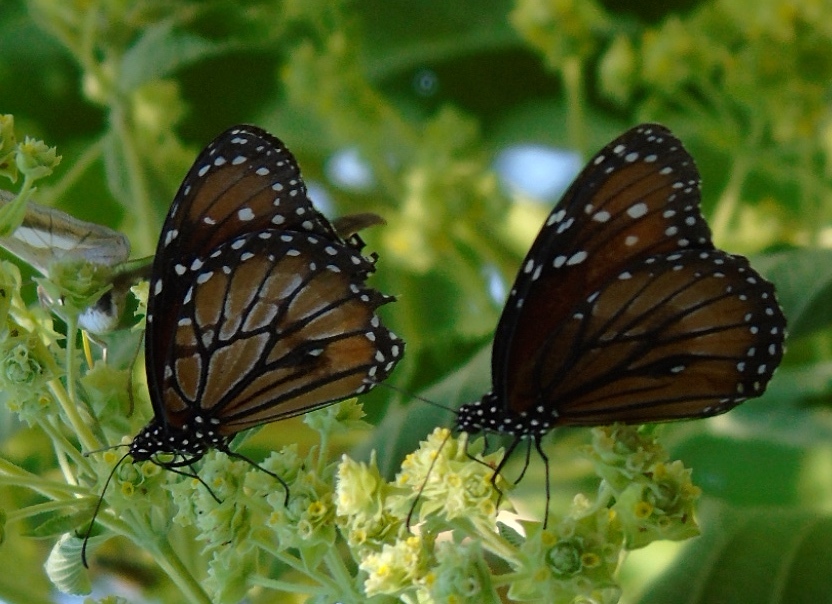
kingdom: Animalia
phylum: Arthropoda
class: Insecta
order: Lepidoptera
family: Nymphalidae
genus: Danaus
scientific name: Danaus eresimus
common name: Soldier
